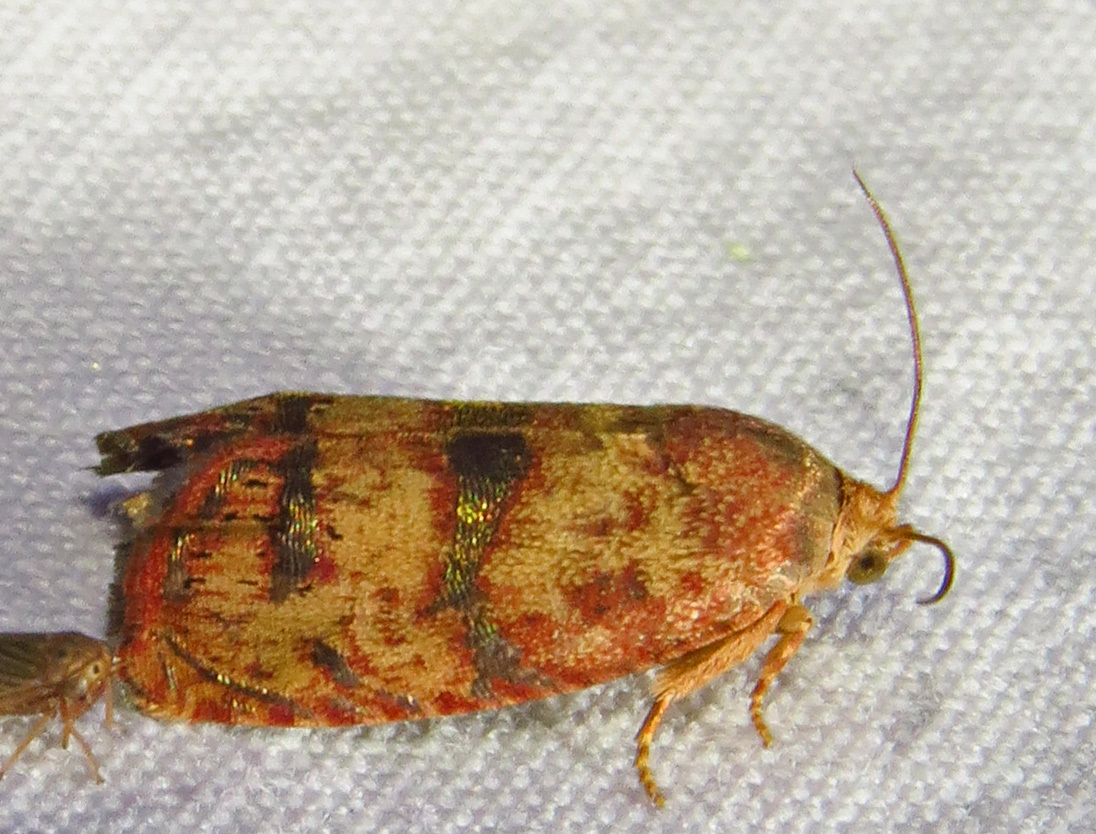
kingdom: Animalia
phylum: Arthropoda
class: Insecta
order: Lepidoptera
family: Tortricidae
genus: Cydia
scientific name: Cydia latiferreana
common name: Filbertworm moth
